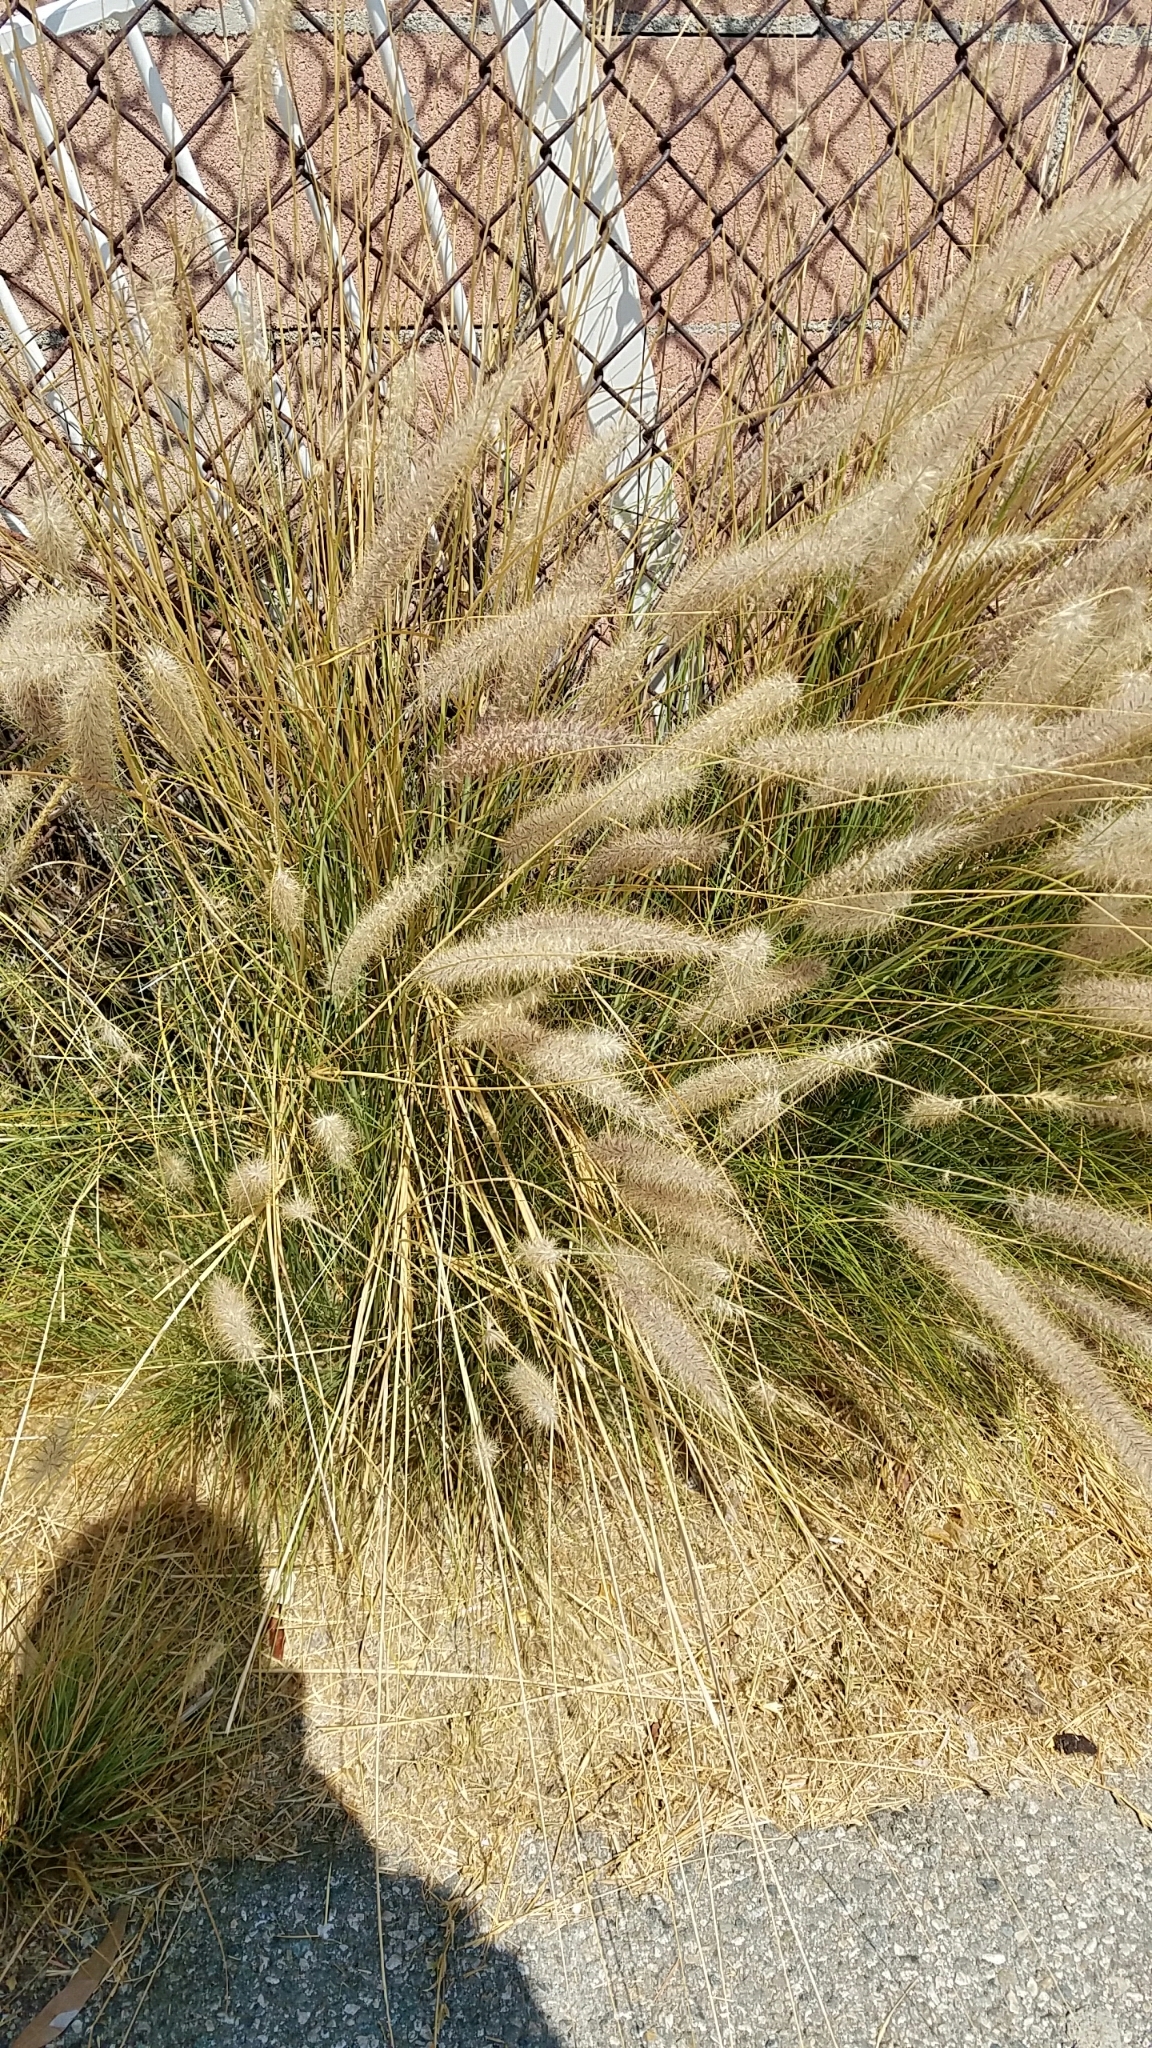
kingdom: Plantae
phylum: Tracheophyta
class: Liliopsida
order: Poales
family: Poaceae
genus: Cenchrus
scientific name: Cenchrus setaceus
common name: Crimson fountaingrass
